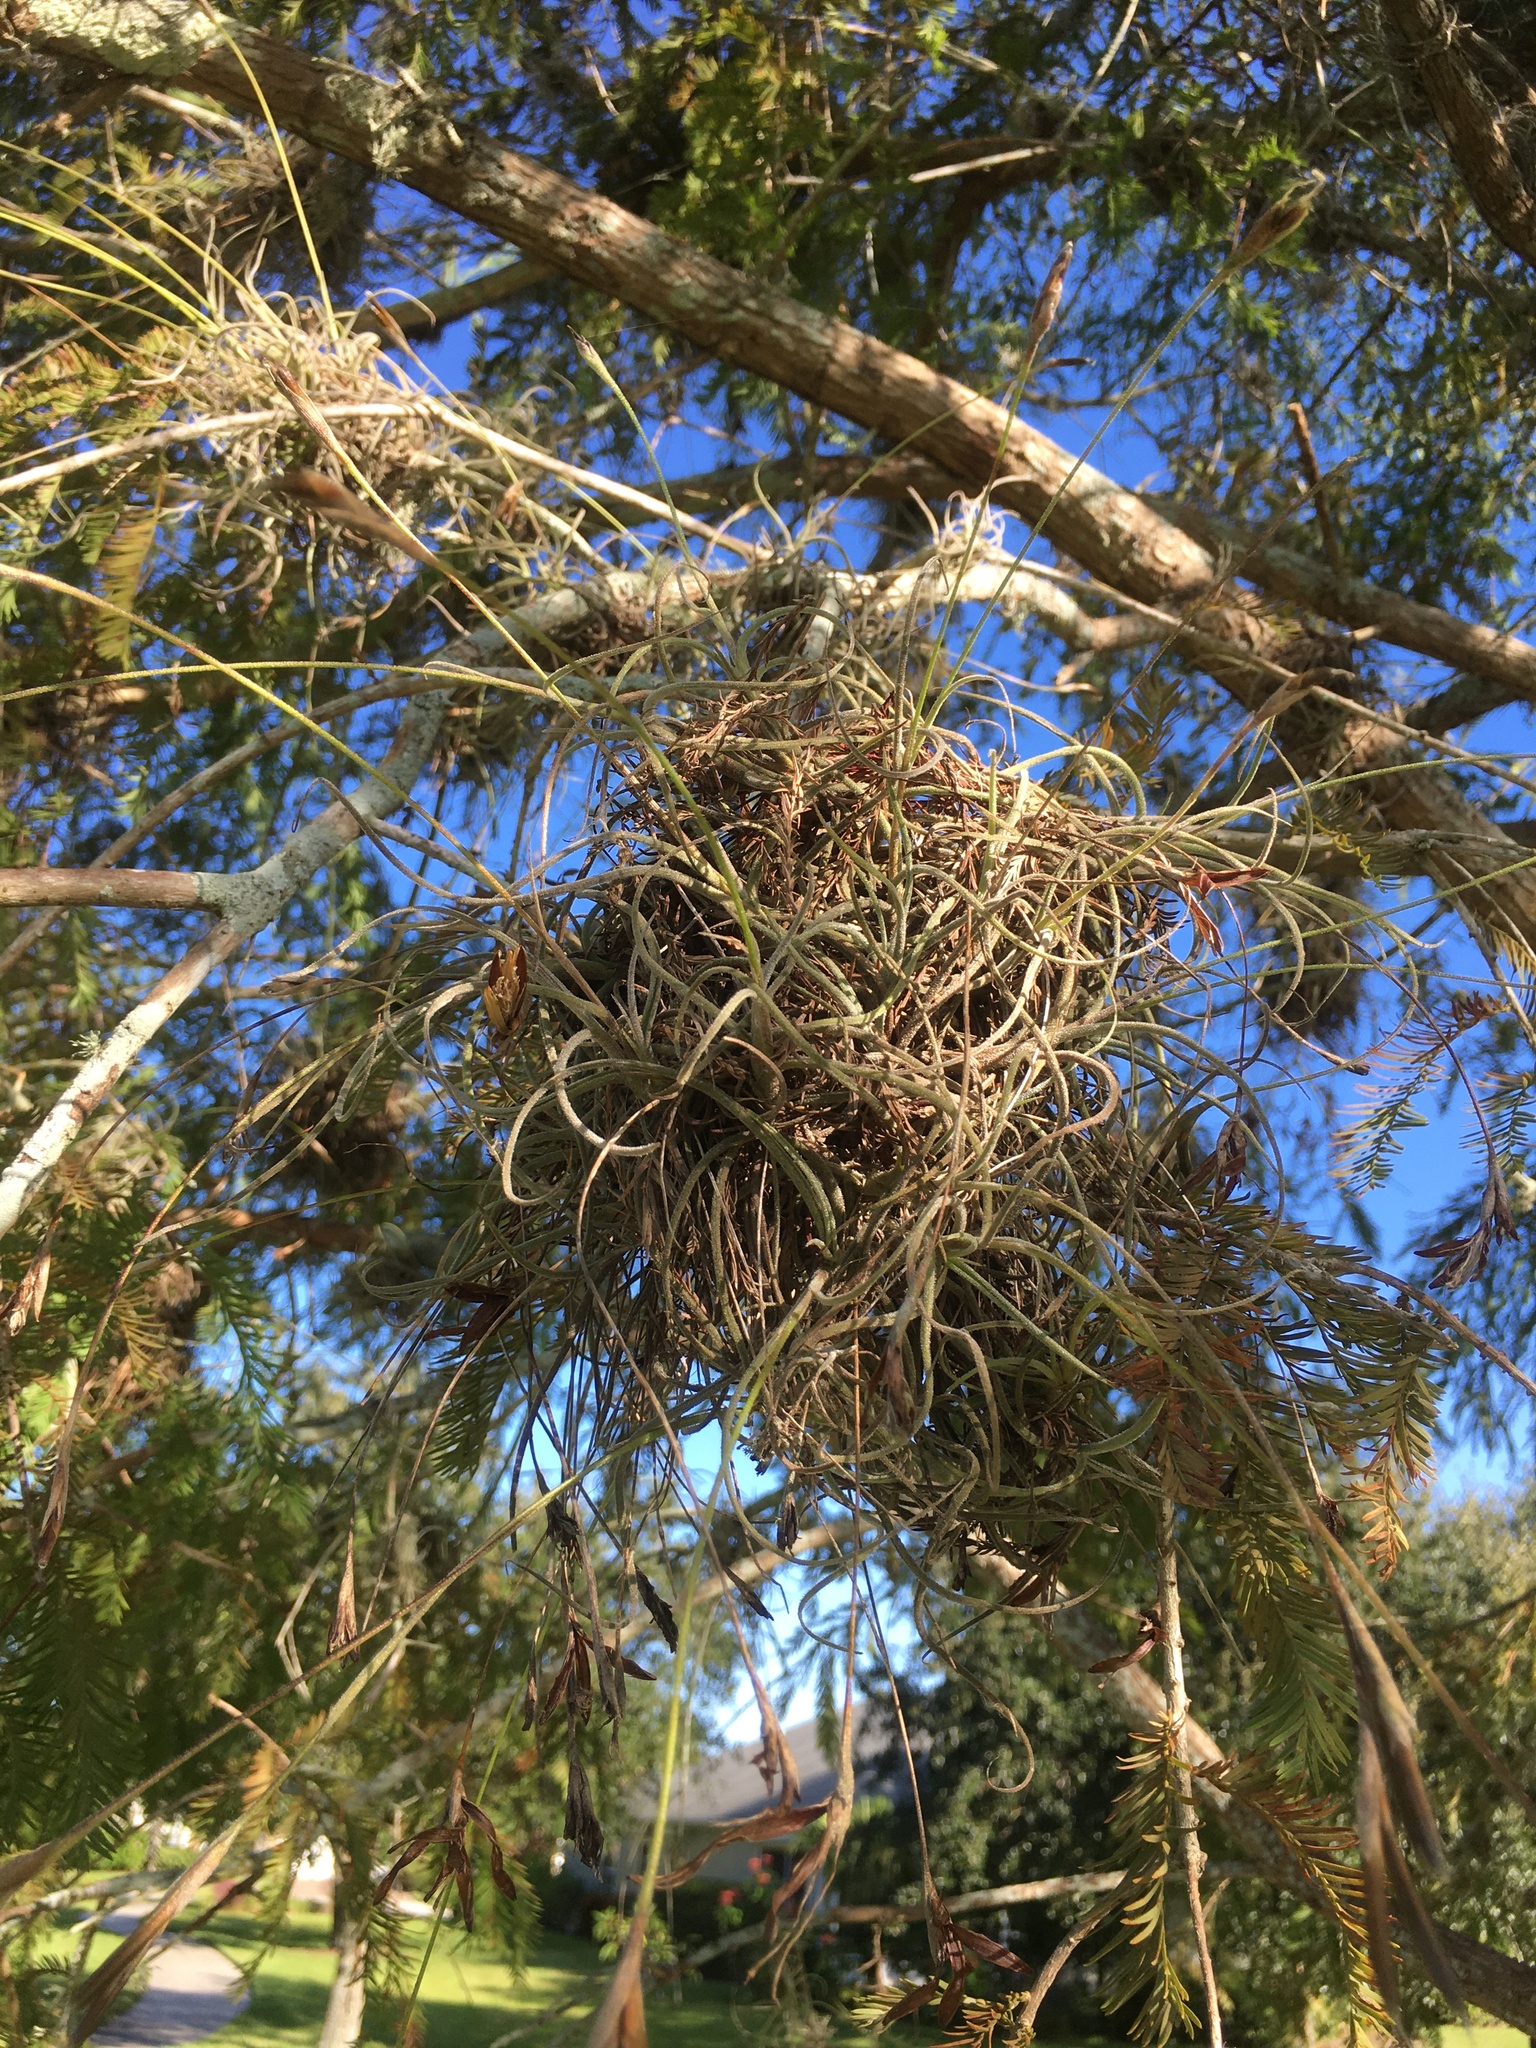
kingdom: Plantae
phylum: Tracheophyta
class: Liliopsida
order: Poales
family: Bromeliaceae
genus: Tillandsia
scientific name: Tillandsia recurvata
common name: Small ballmoss
